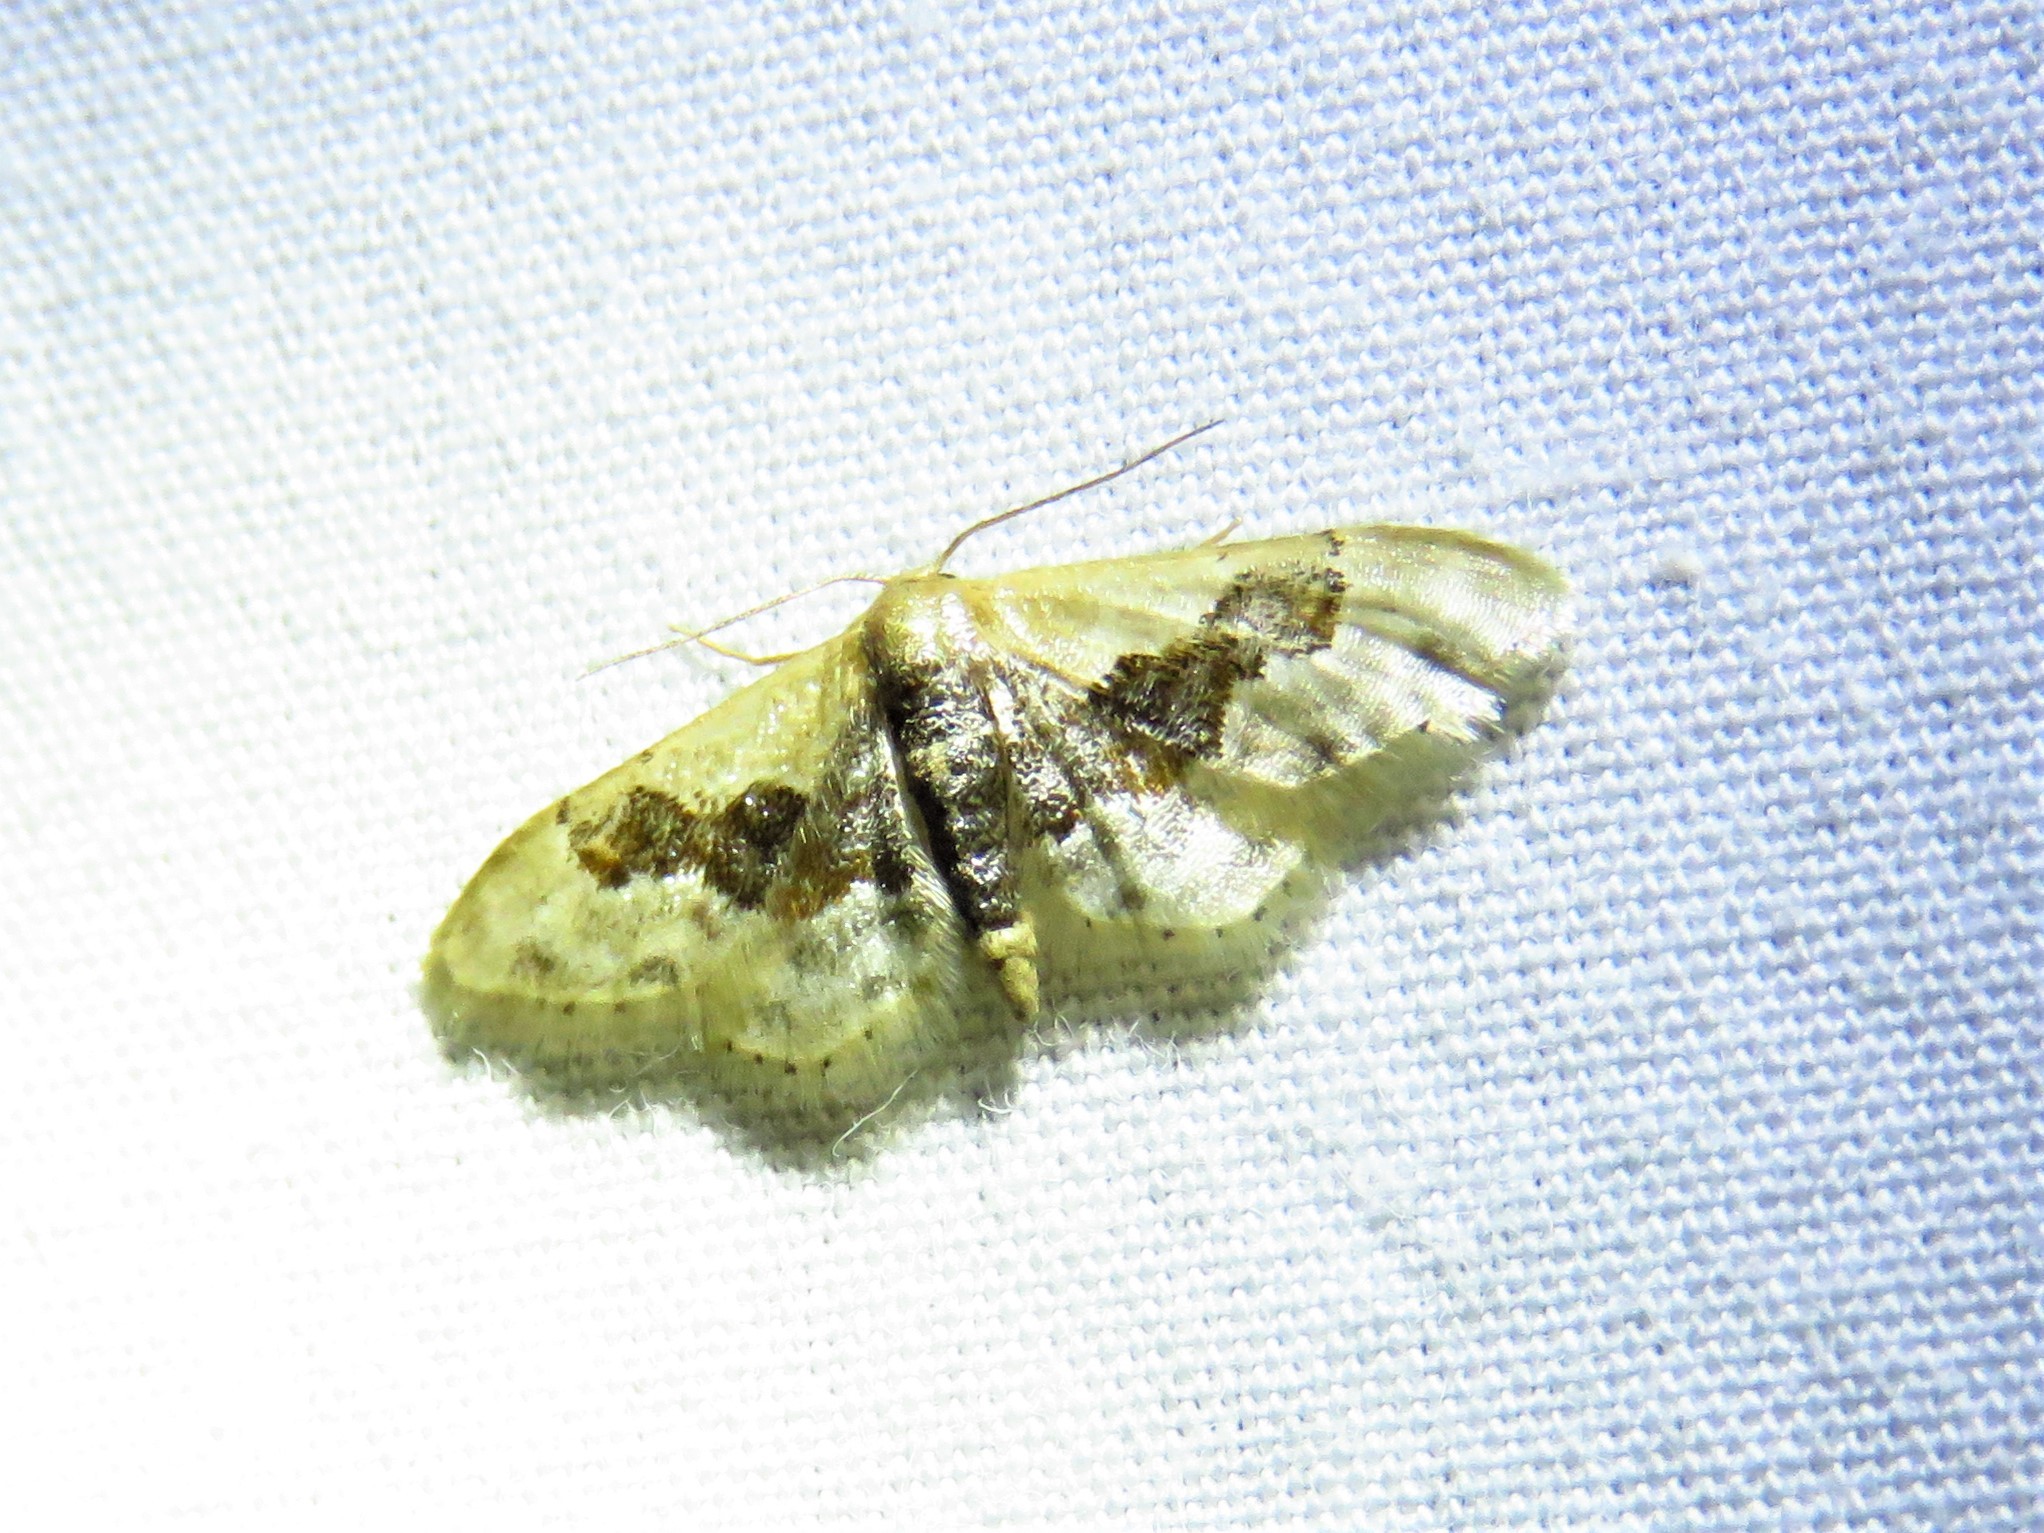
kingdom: Animalia
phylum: Arthropoda
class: Insecta
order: Lepidoptera
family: Geometridae
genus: Idaea
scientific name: Idaea gemmata
